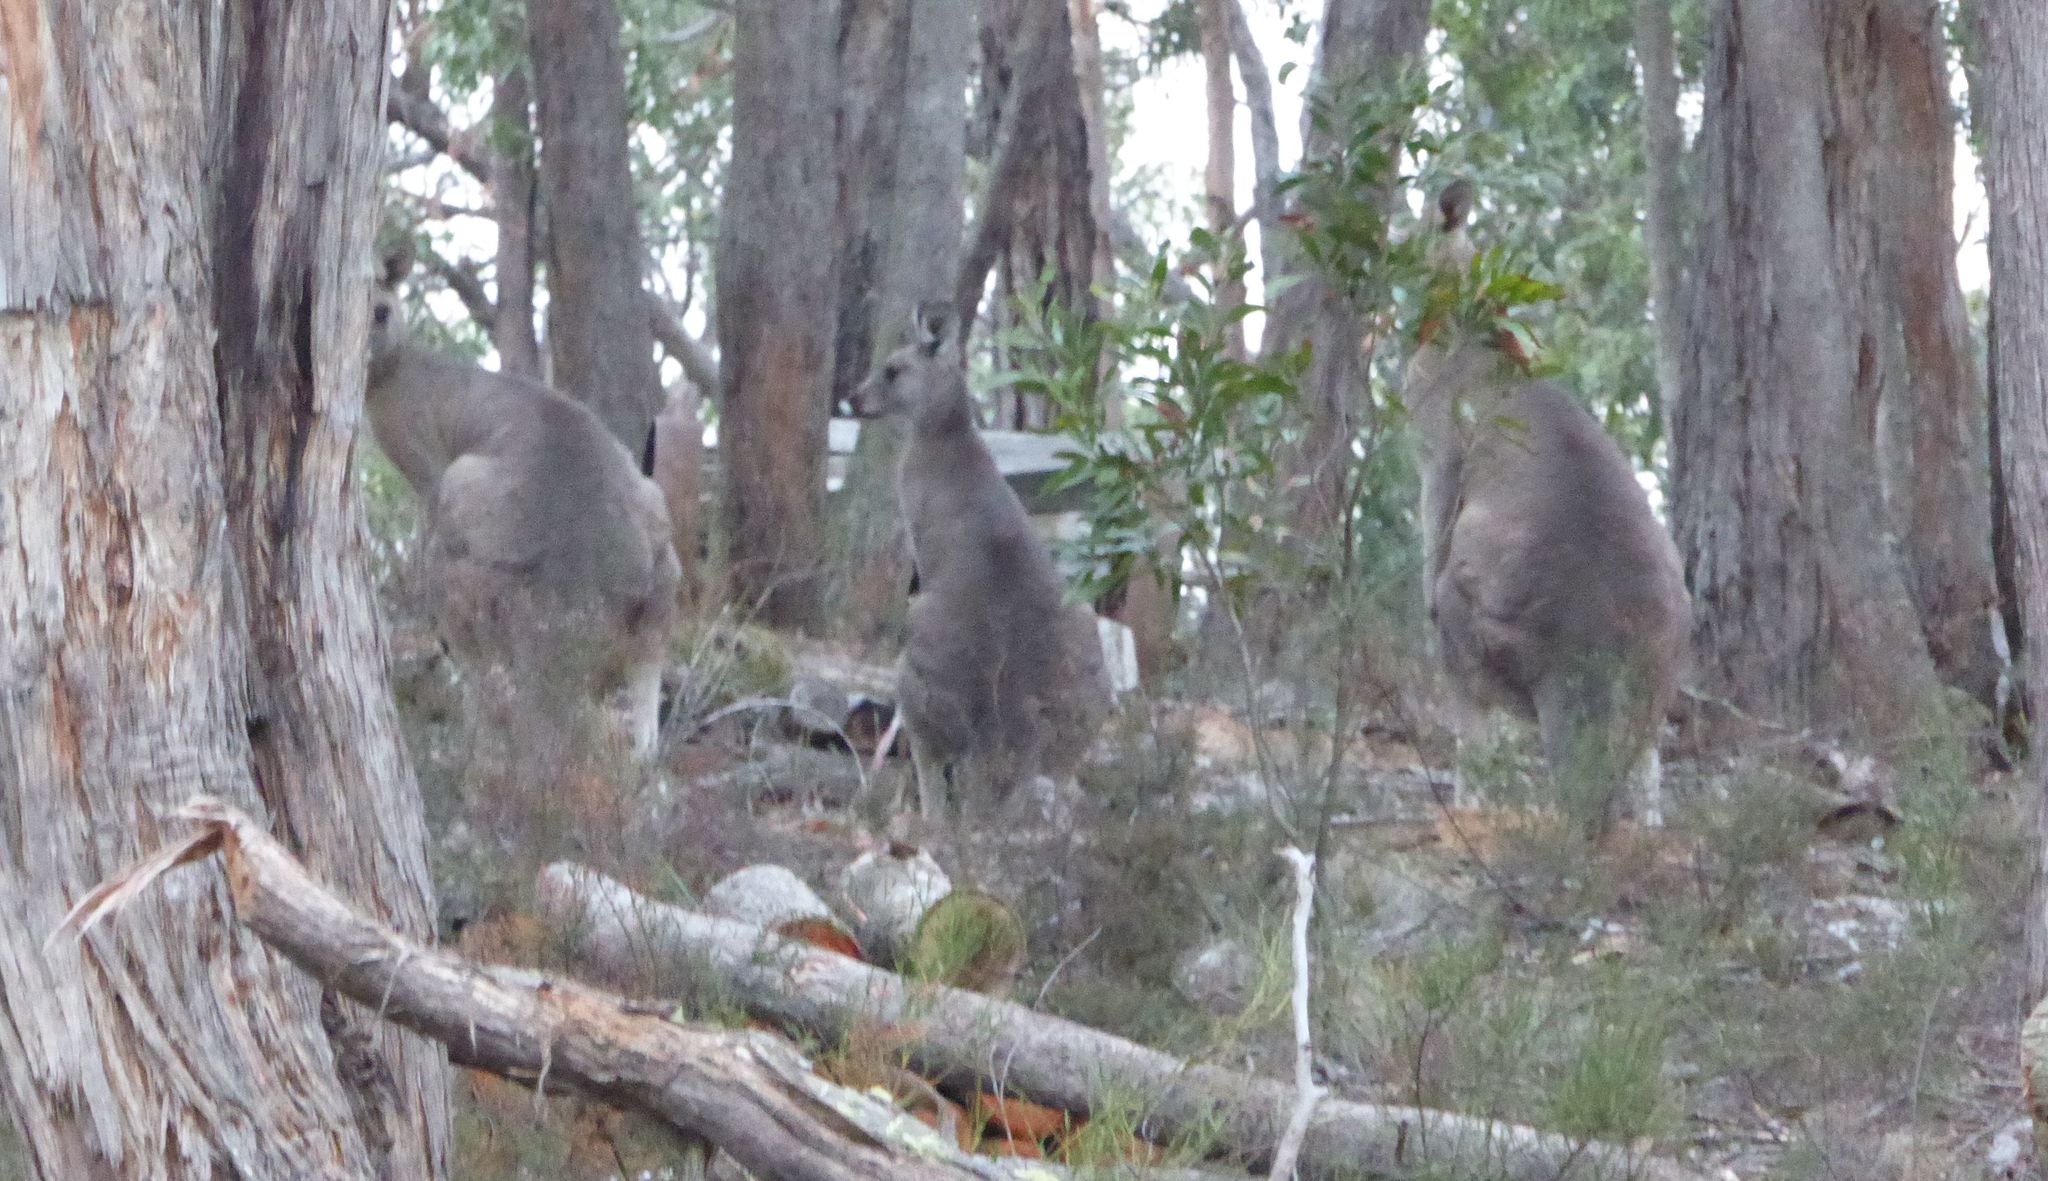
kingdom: Animalia
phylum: Chordata
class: Mammalia
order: Diprotodontia
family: Macropodidae
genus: Macropus
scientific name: Macropus giganteus
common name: Eastern grey kangaroo
